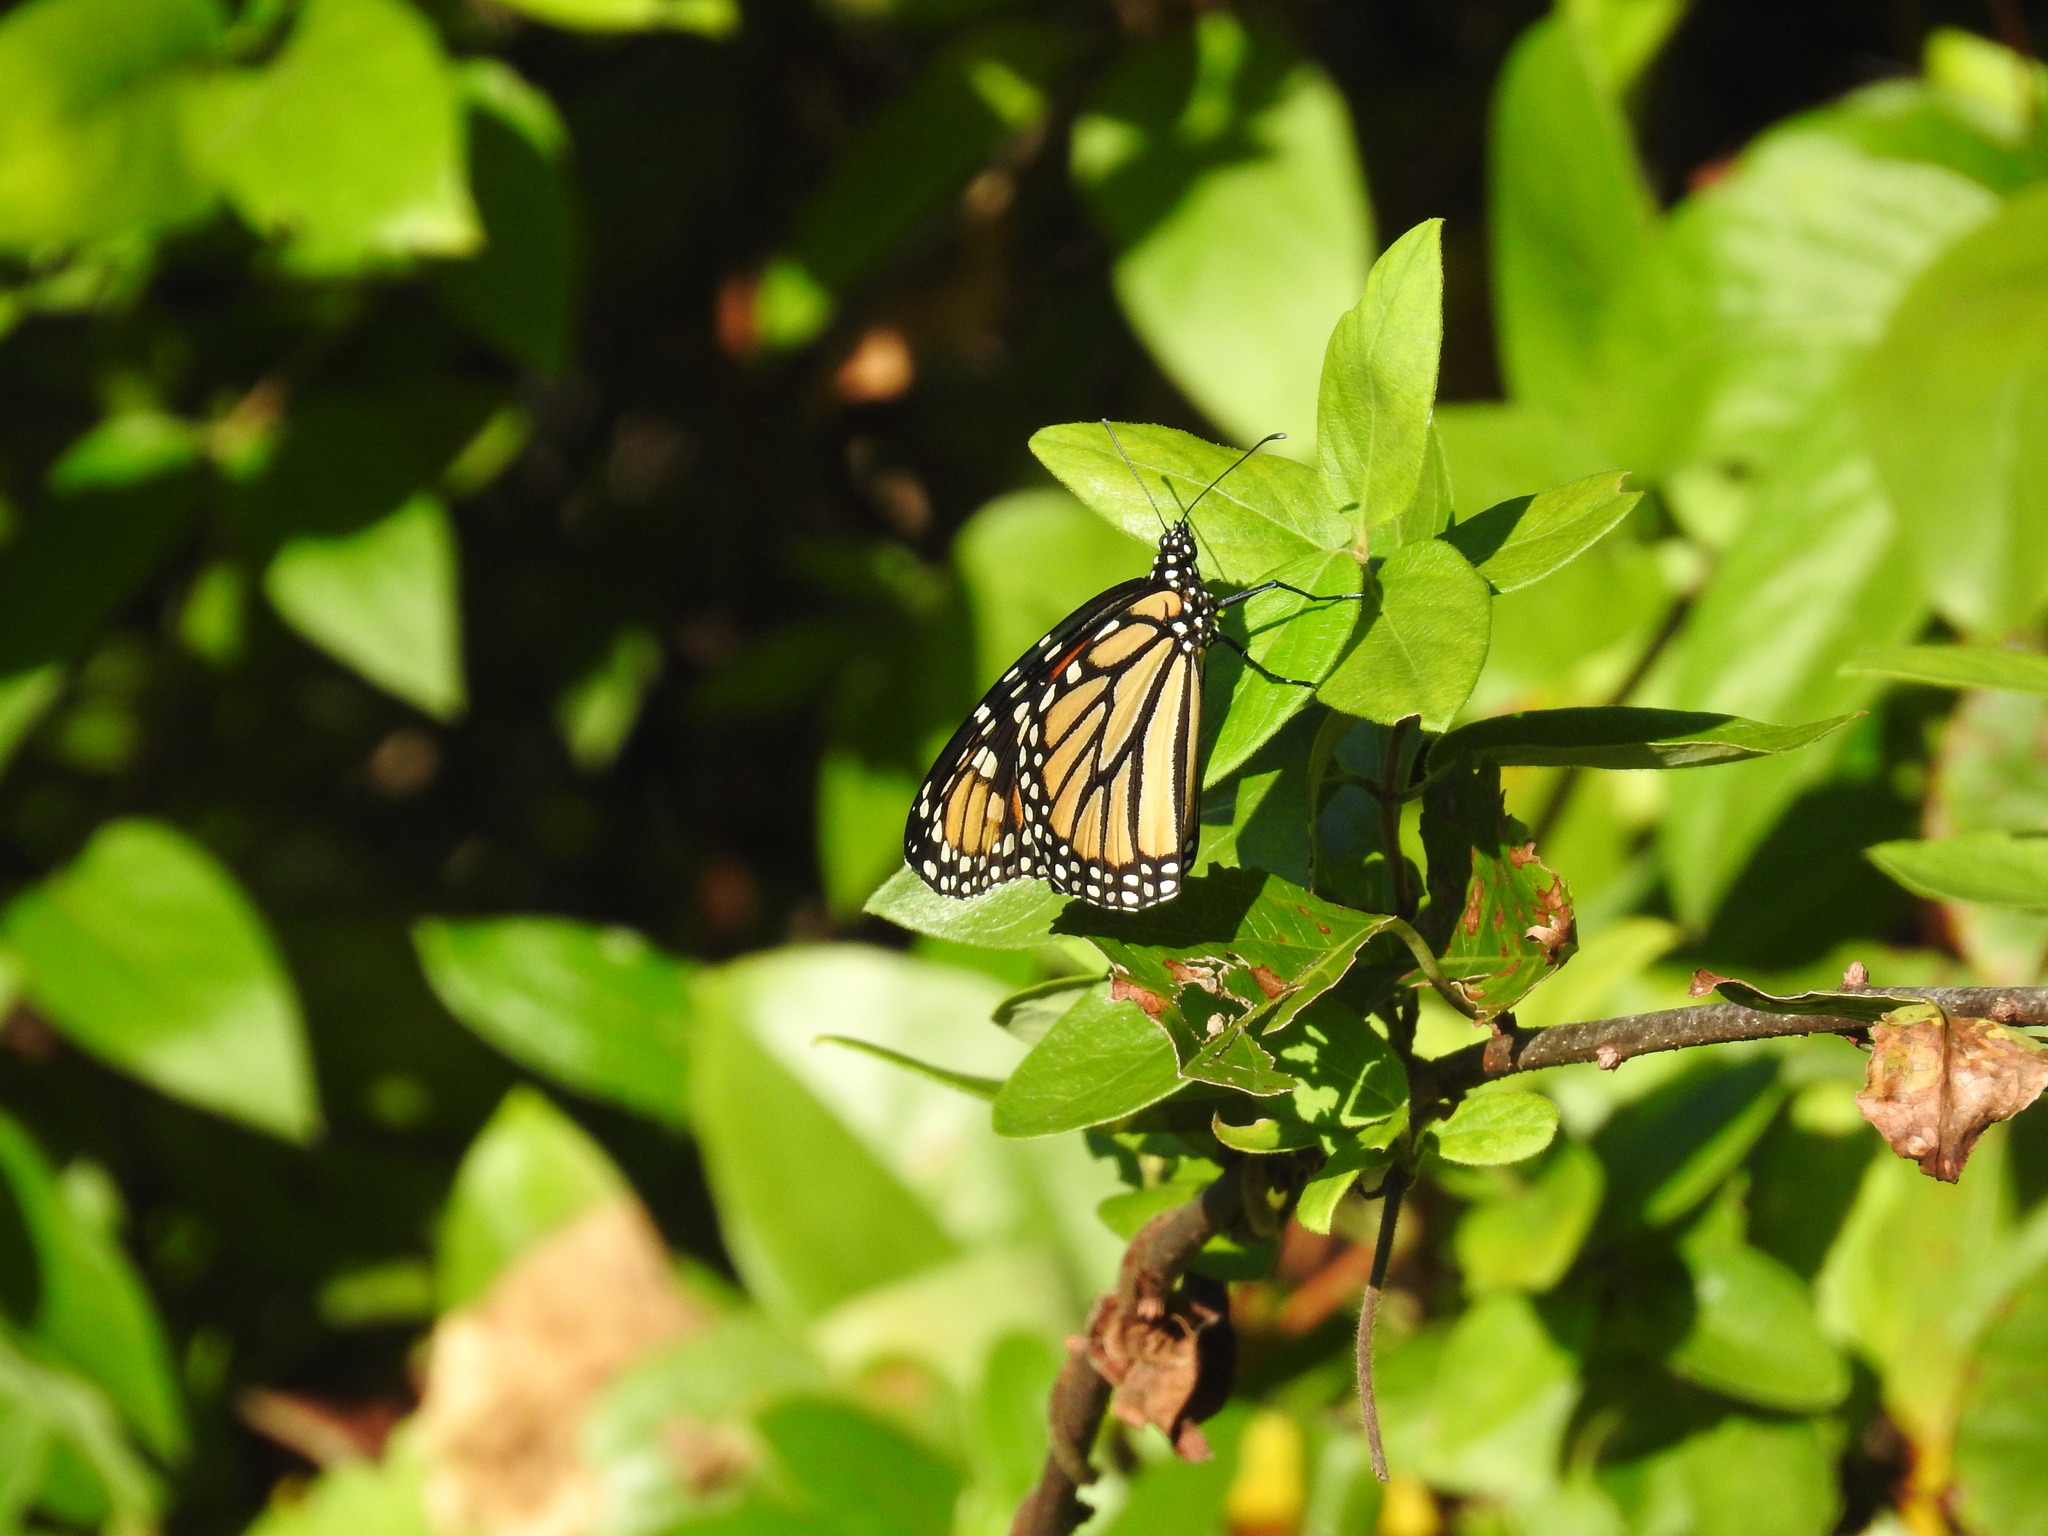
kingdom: Animalia
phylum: Arthropoda
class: Insecta
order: Lepidoptera
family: Nymphalidae
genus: Danaus
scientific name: Danaus plexippus
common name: Monarch
